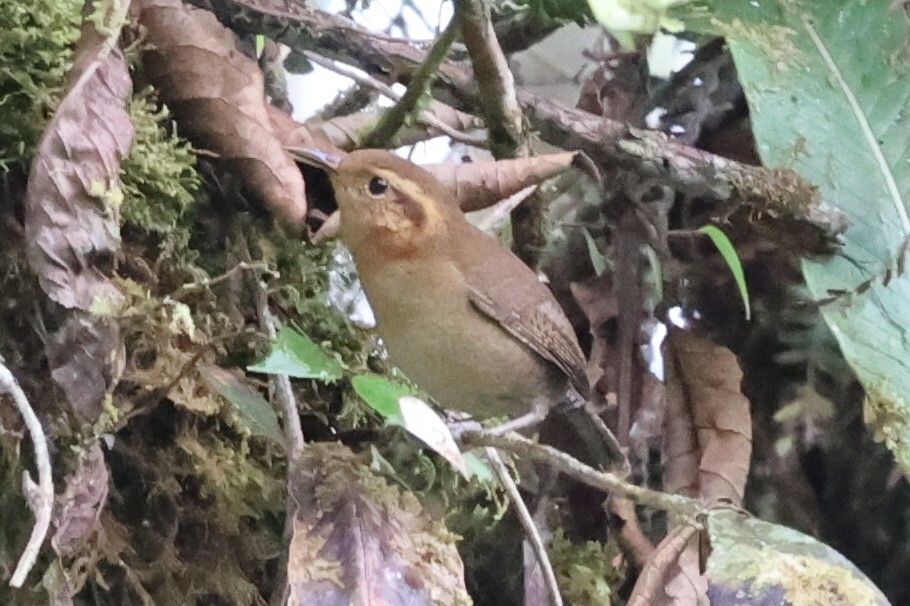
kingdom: Animalia
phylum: Chordata
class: Aves
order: Passeriformes
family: Troglodytidae
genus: Troglodytes
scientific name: Troglodytes solstitialis
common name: Mountain wren
